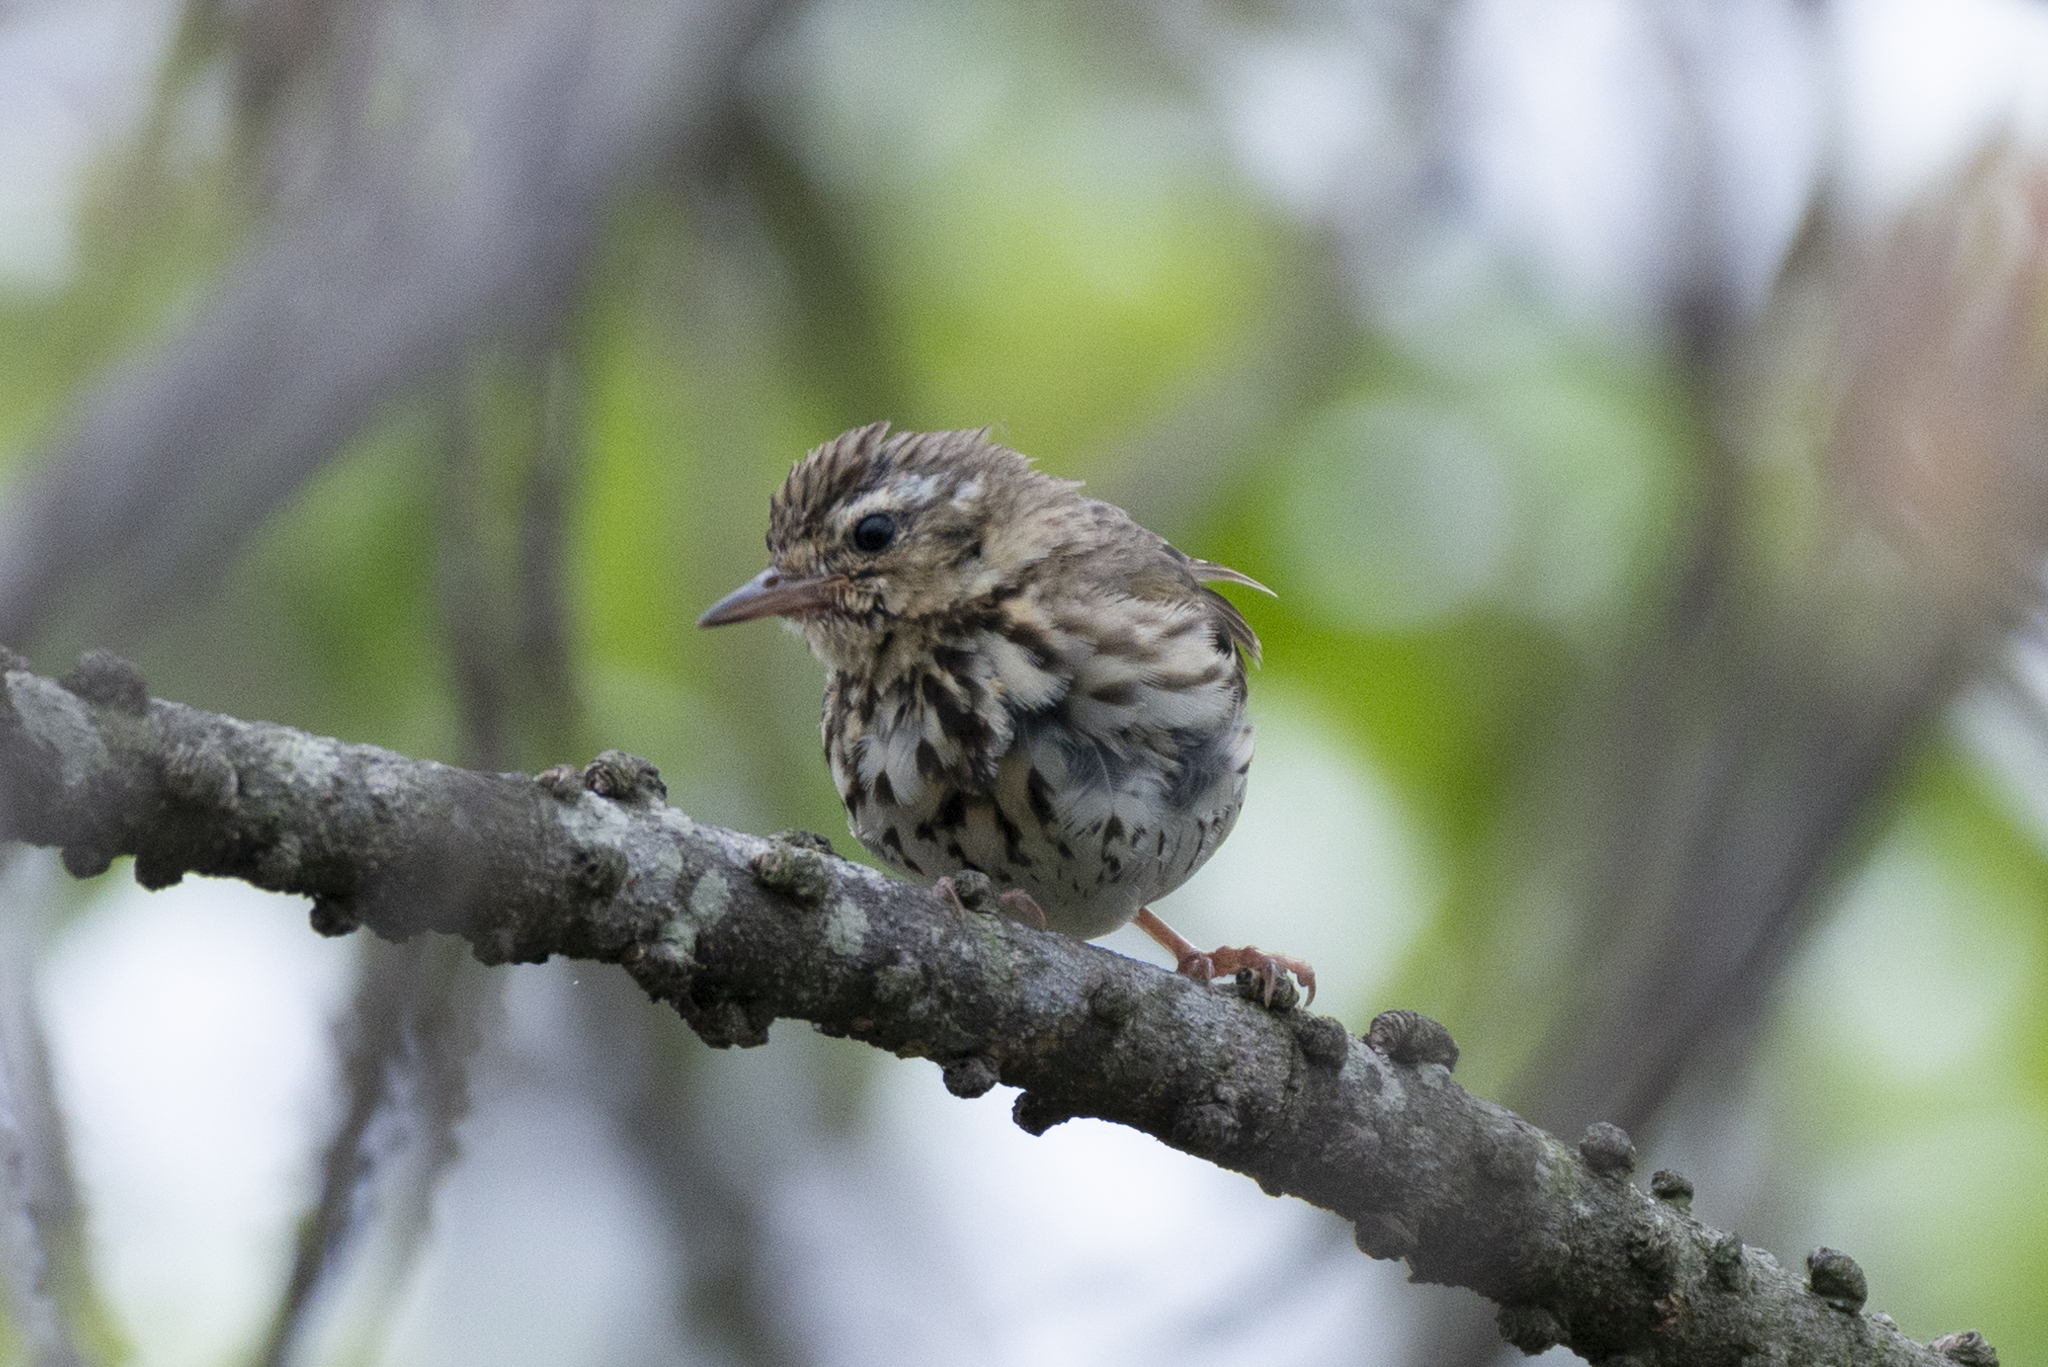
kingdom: Animalia
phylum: Chordata
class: Aves
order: Passeriformes
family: Motacillidae
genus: Anthus
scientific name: Anthus hodgsoni
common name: Olive-backed pipit
